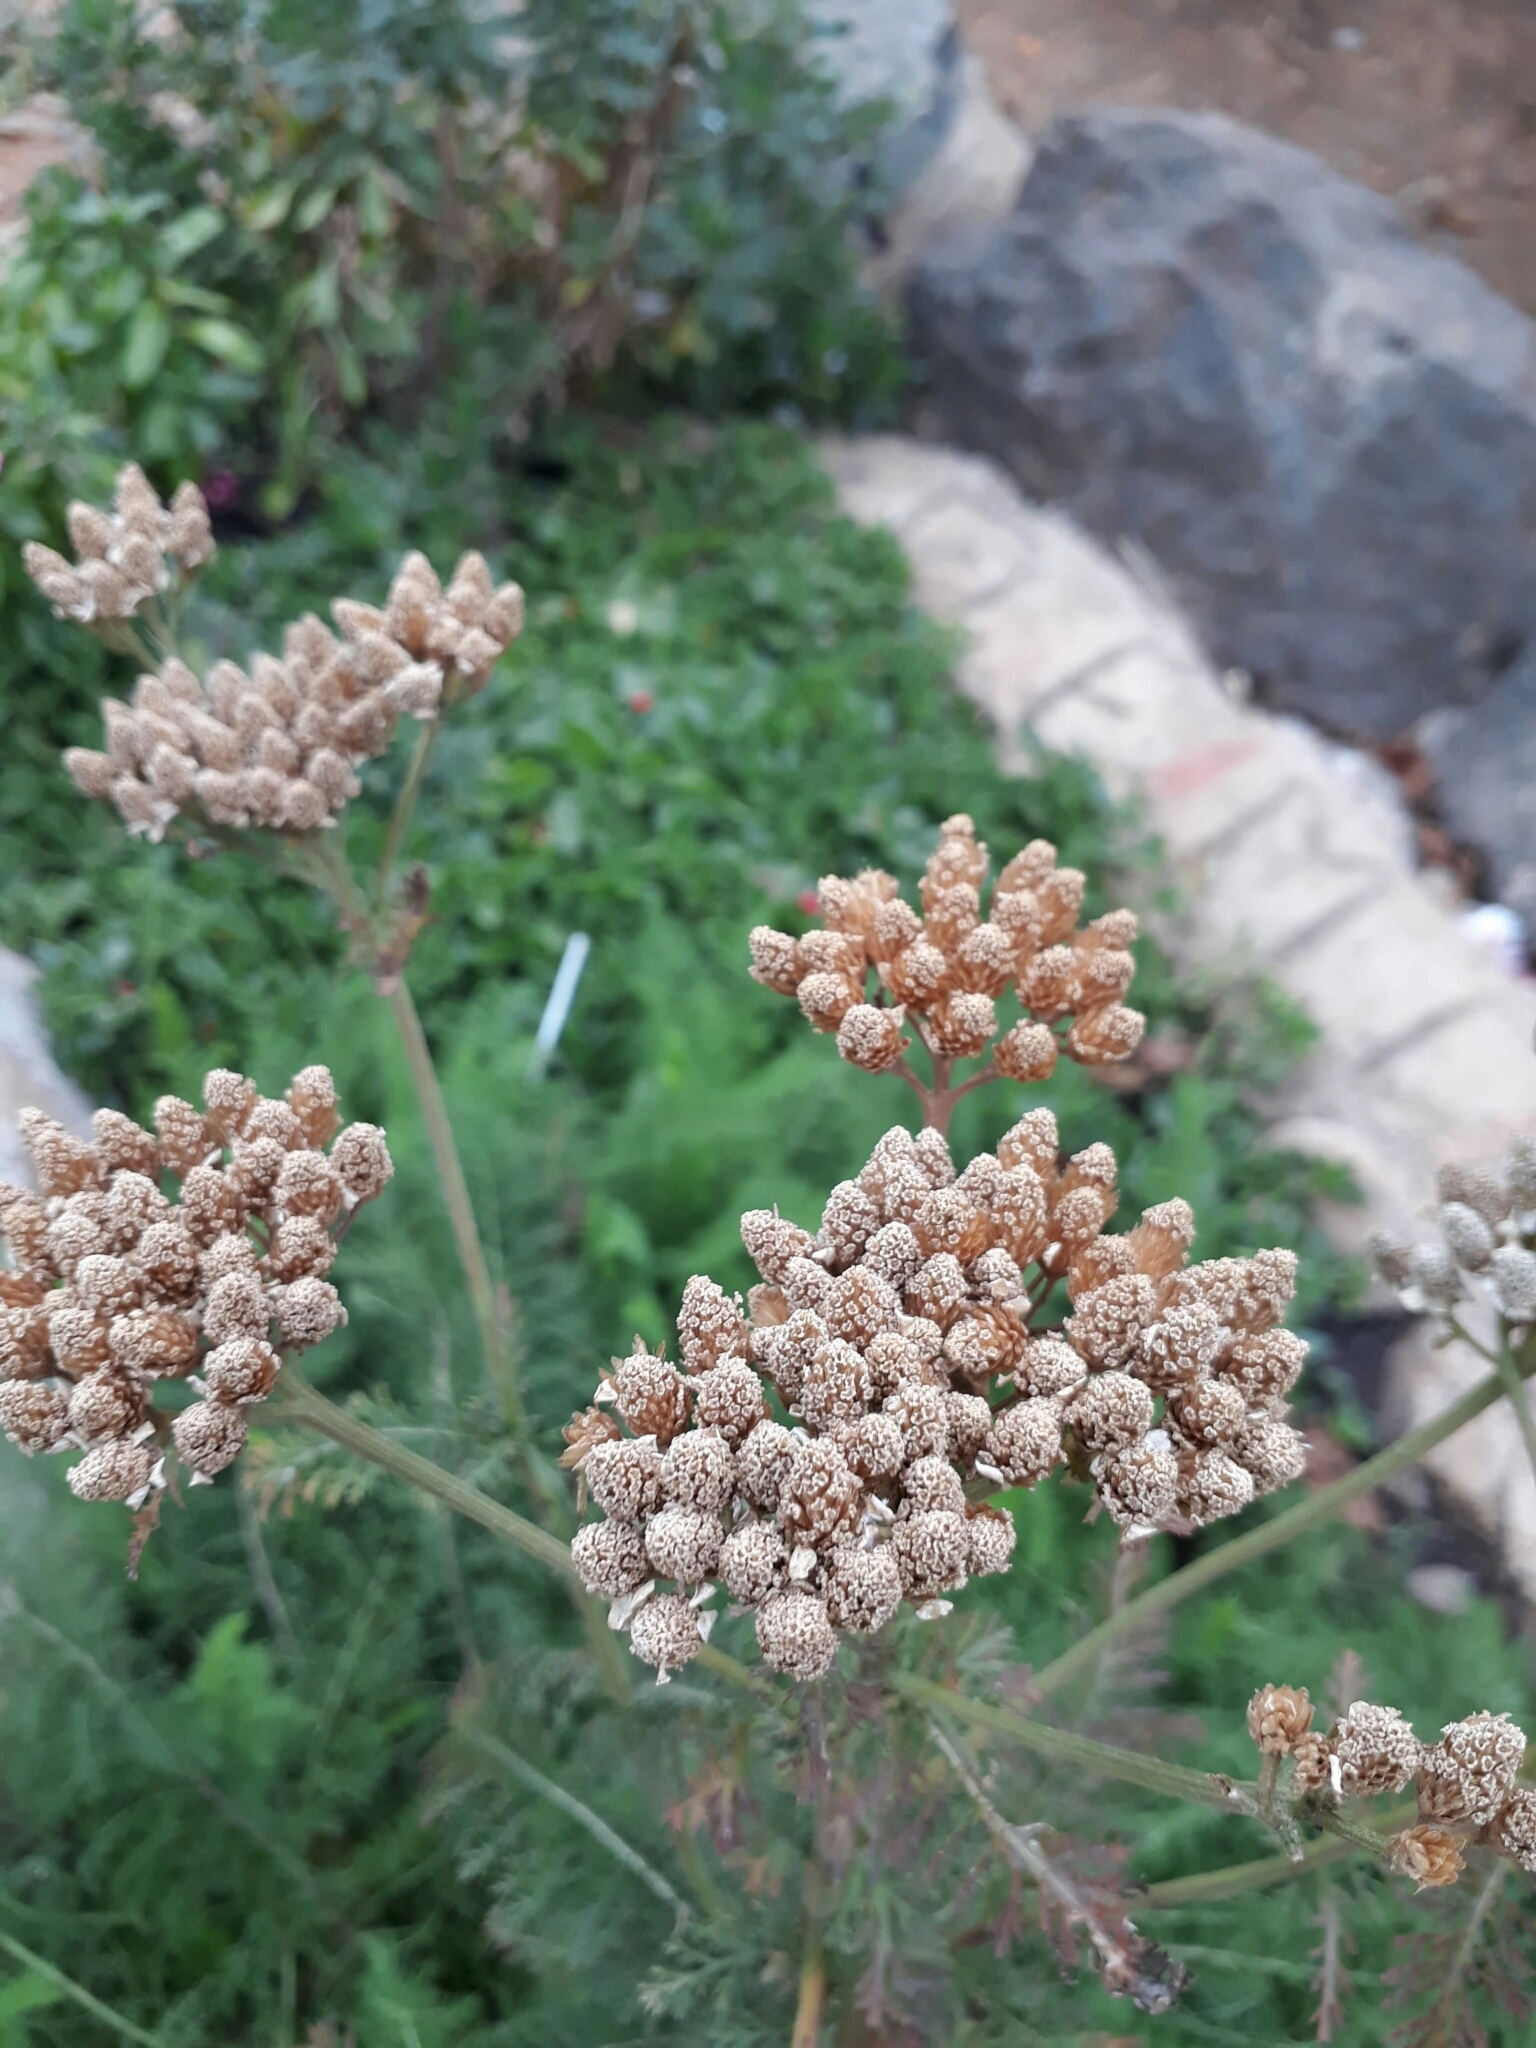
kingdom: Plantae
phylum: Tracheophyta
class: Magnoliopsida
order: Asterales
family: Asteraceae
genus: Achillea
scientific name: Achillea millefolium
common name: Yarrow
